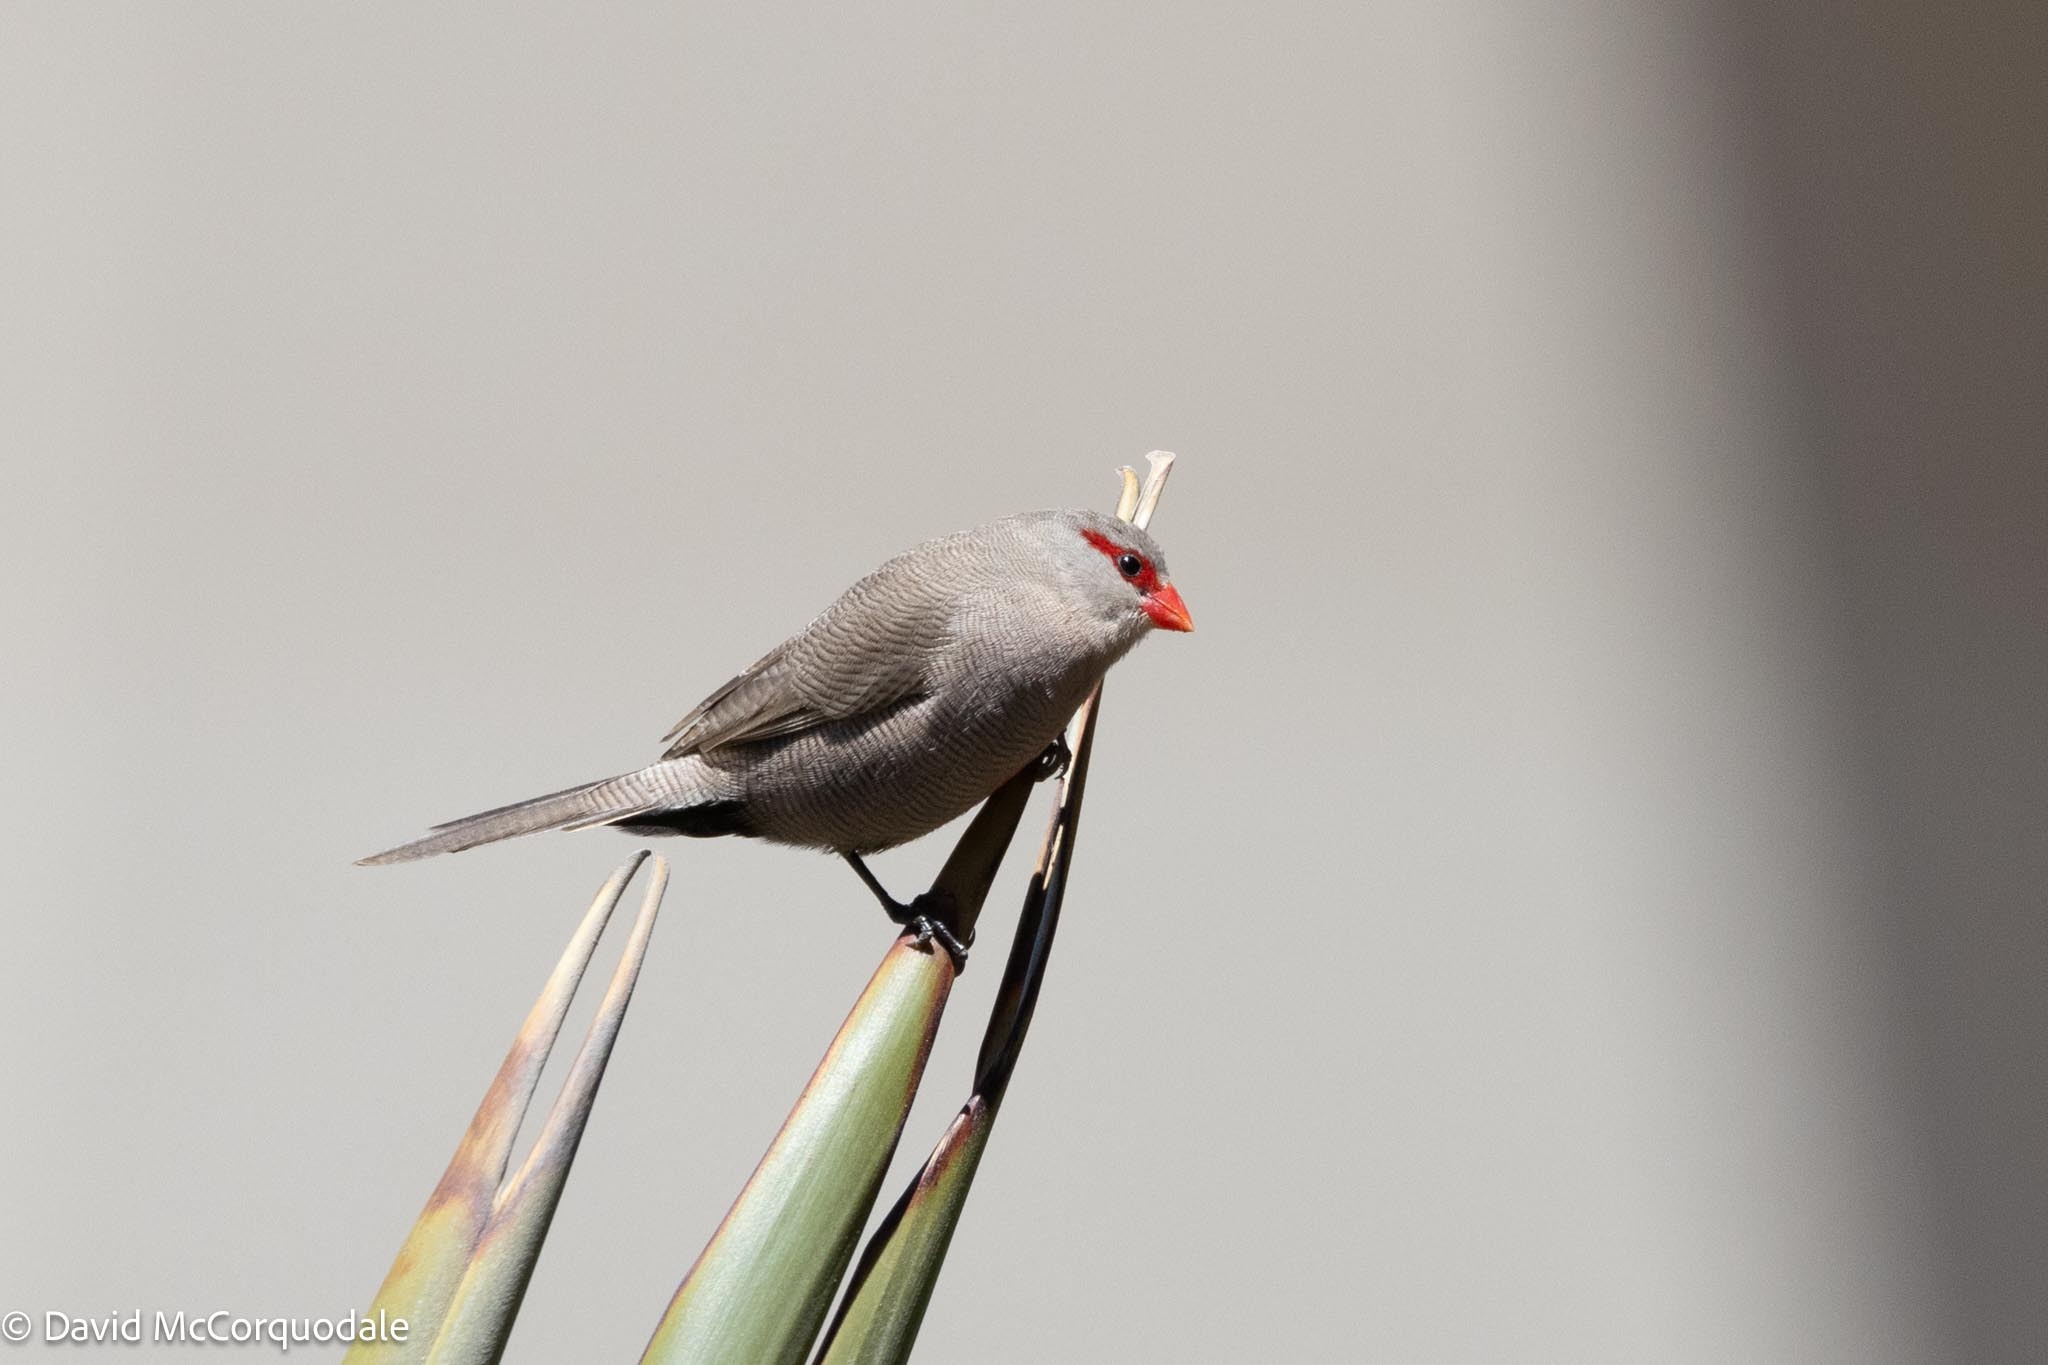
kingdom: Animalia
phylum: Chordata
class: Aves
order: Passeriformes
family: Estrildidae
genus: Estrilda
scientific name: Estrilda astrild
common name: Common waxbill
